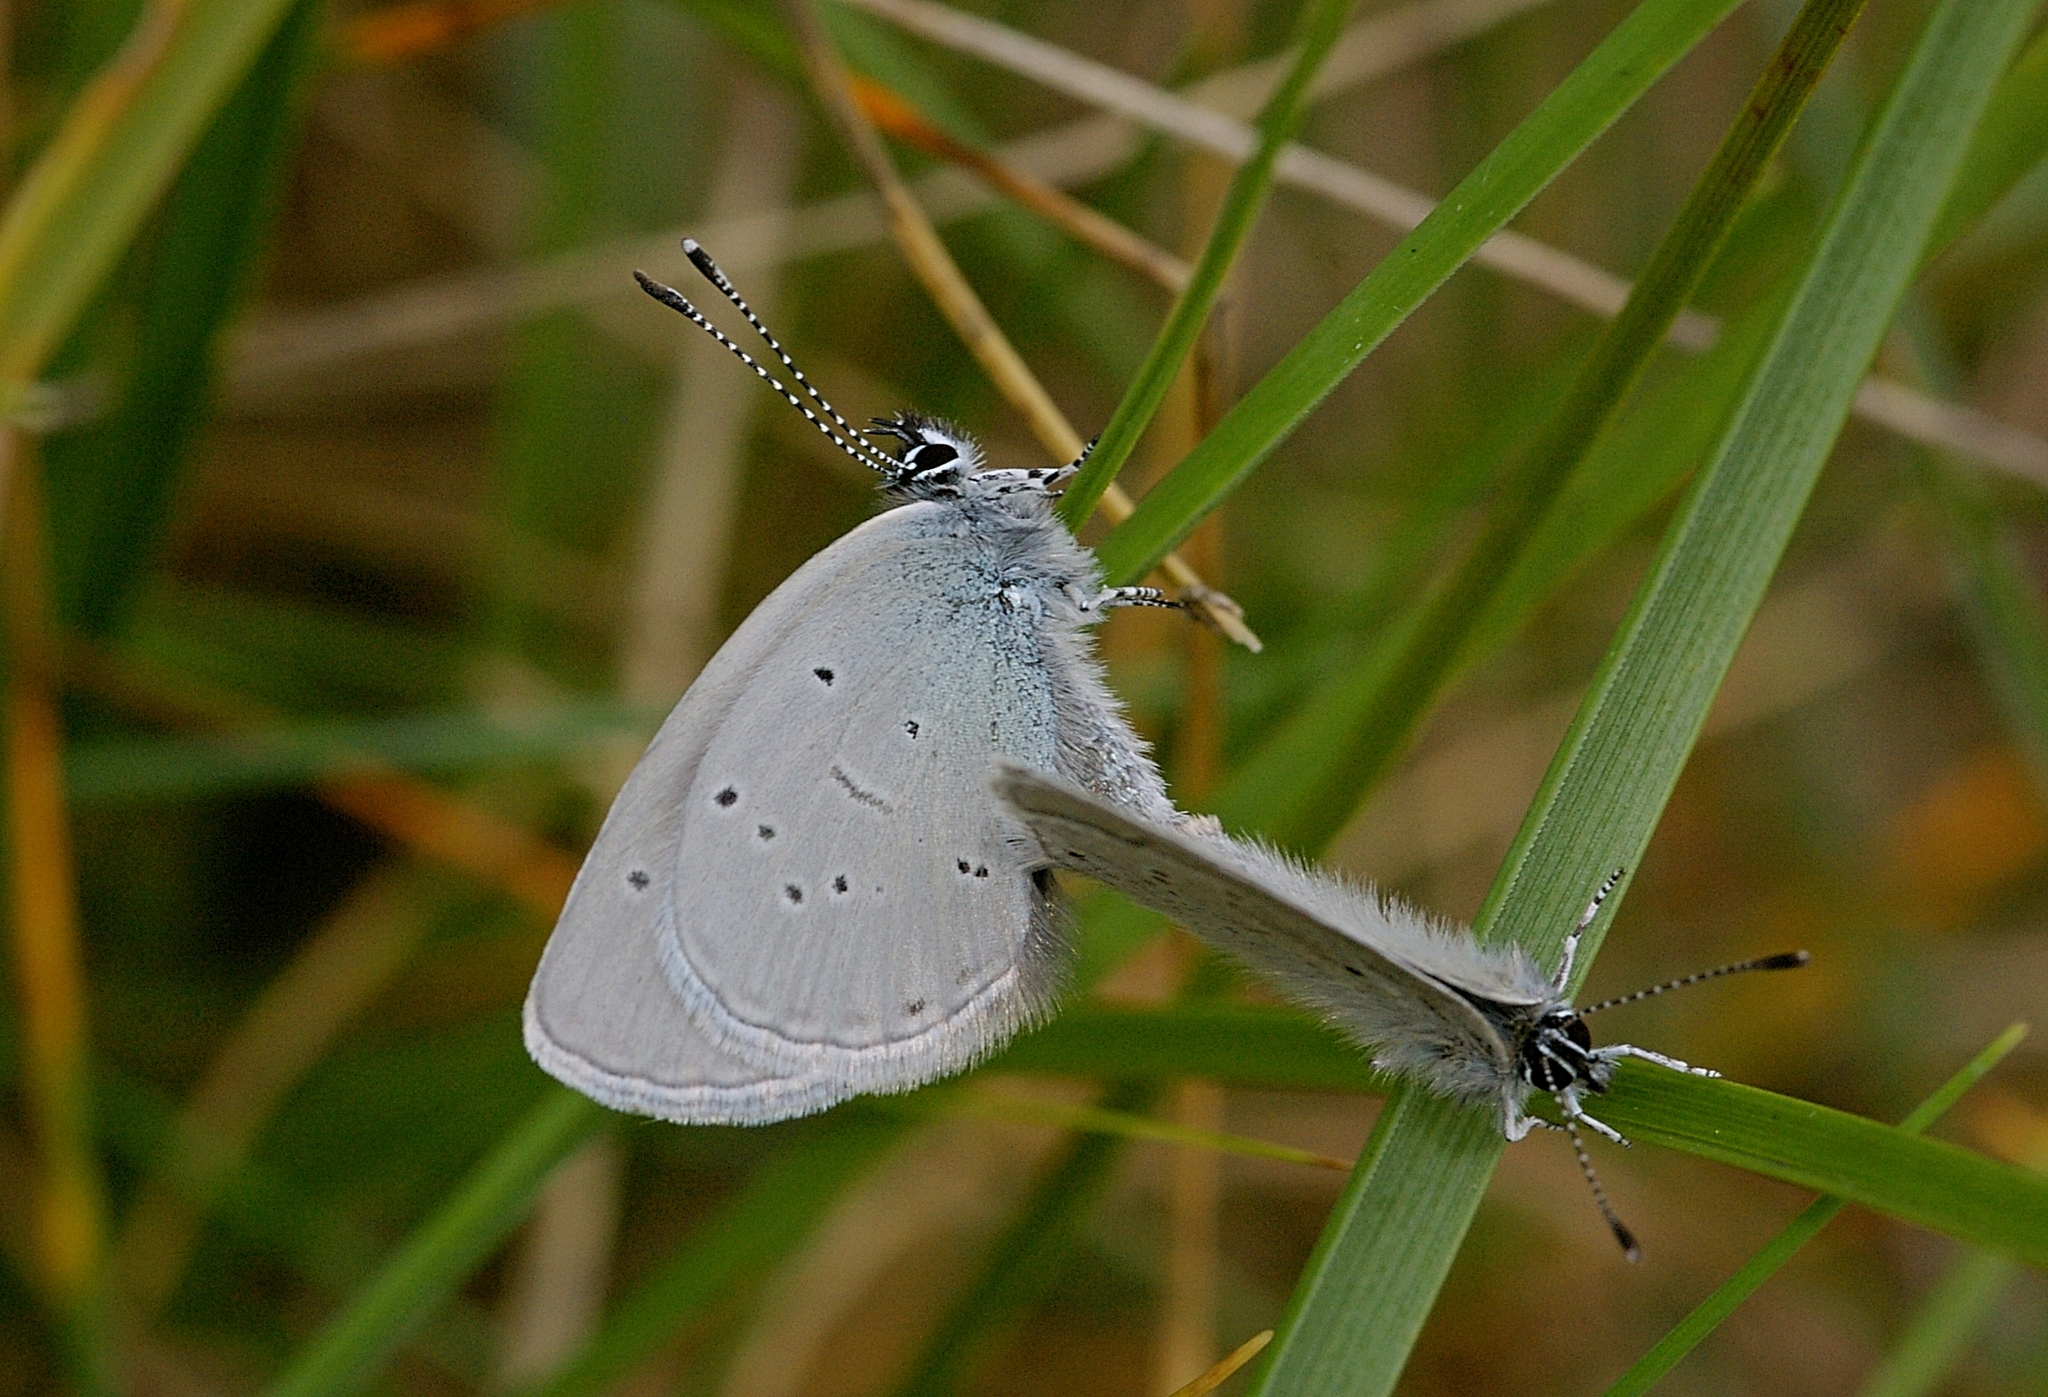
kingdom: Animalia
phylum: Arthropoda
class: Insecta
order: Lepidoptera
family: Lycaenidae
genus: Cupido
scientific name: Cupido minimus
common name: Small blue
